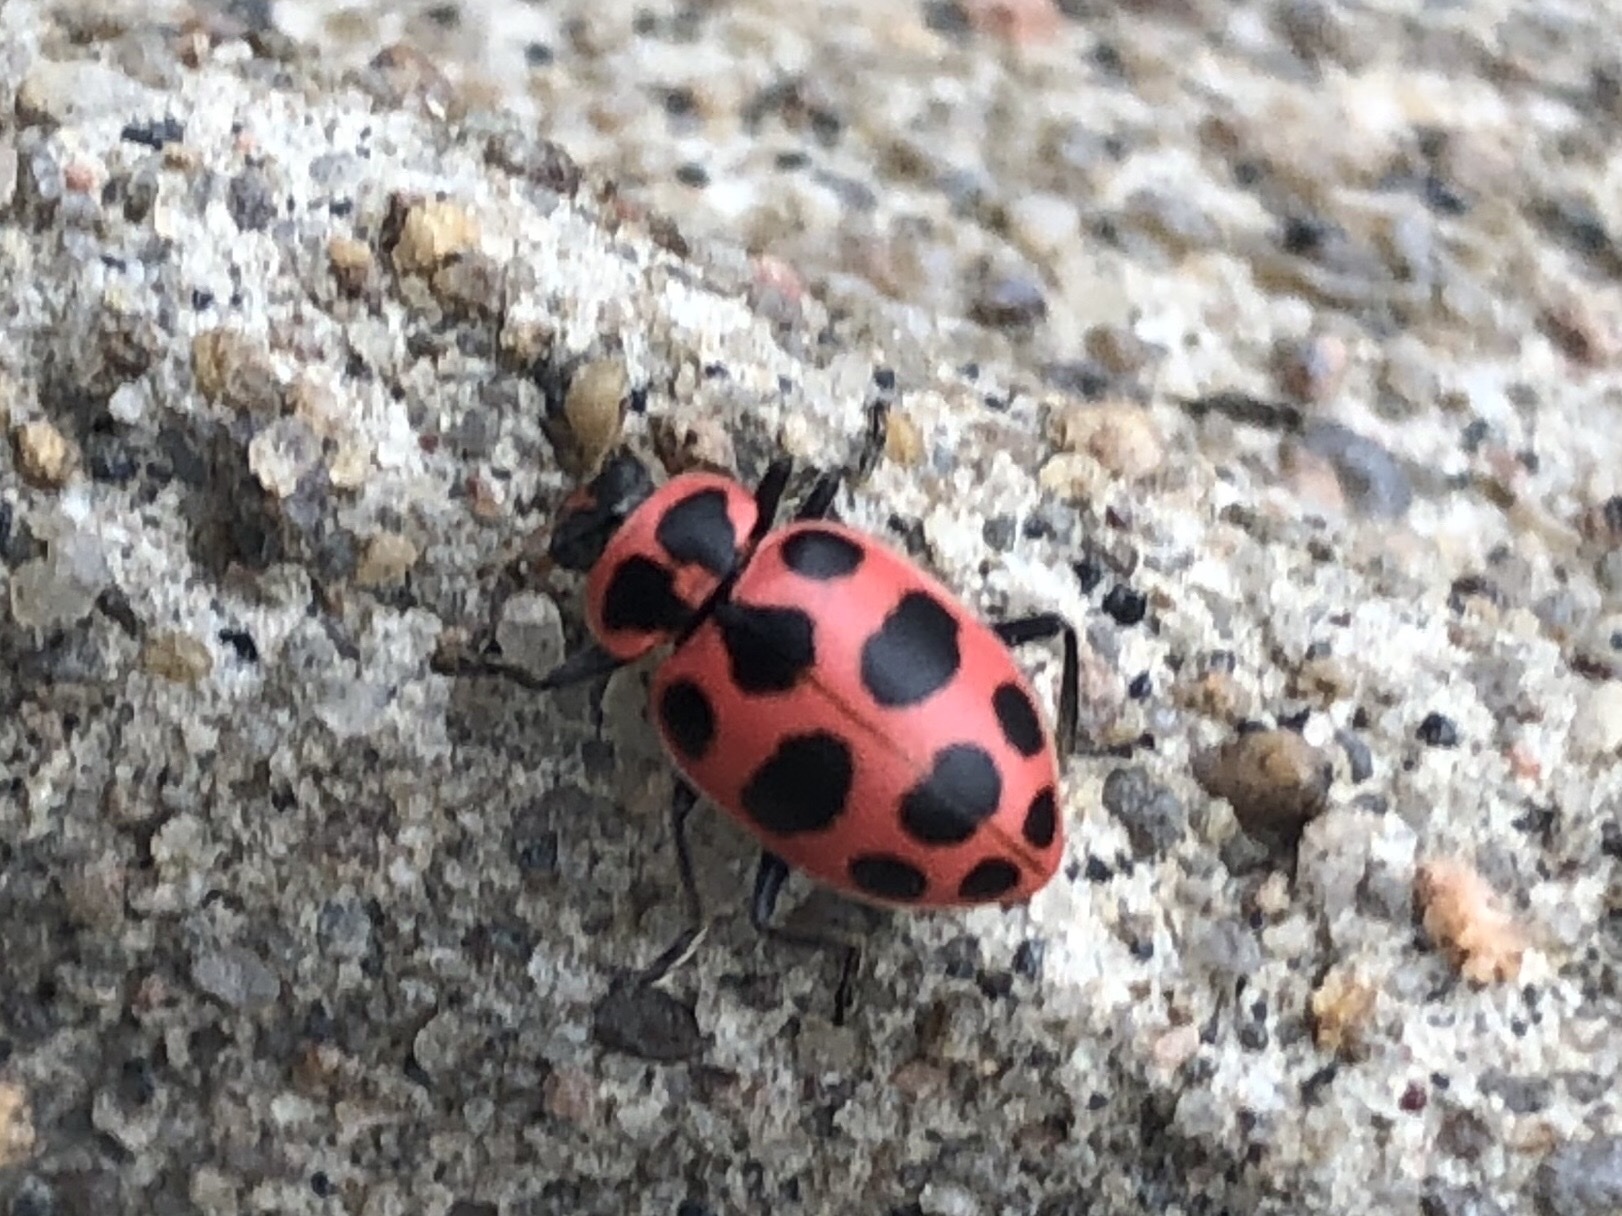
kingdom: Animalia
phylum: Arthropoda
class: Insecta
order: Coleoptera
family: Coccinellidae
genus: Coleomegilla
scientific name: Coleomegilla maculata
